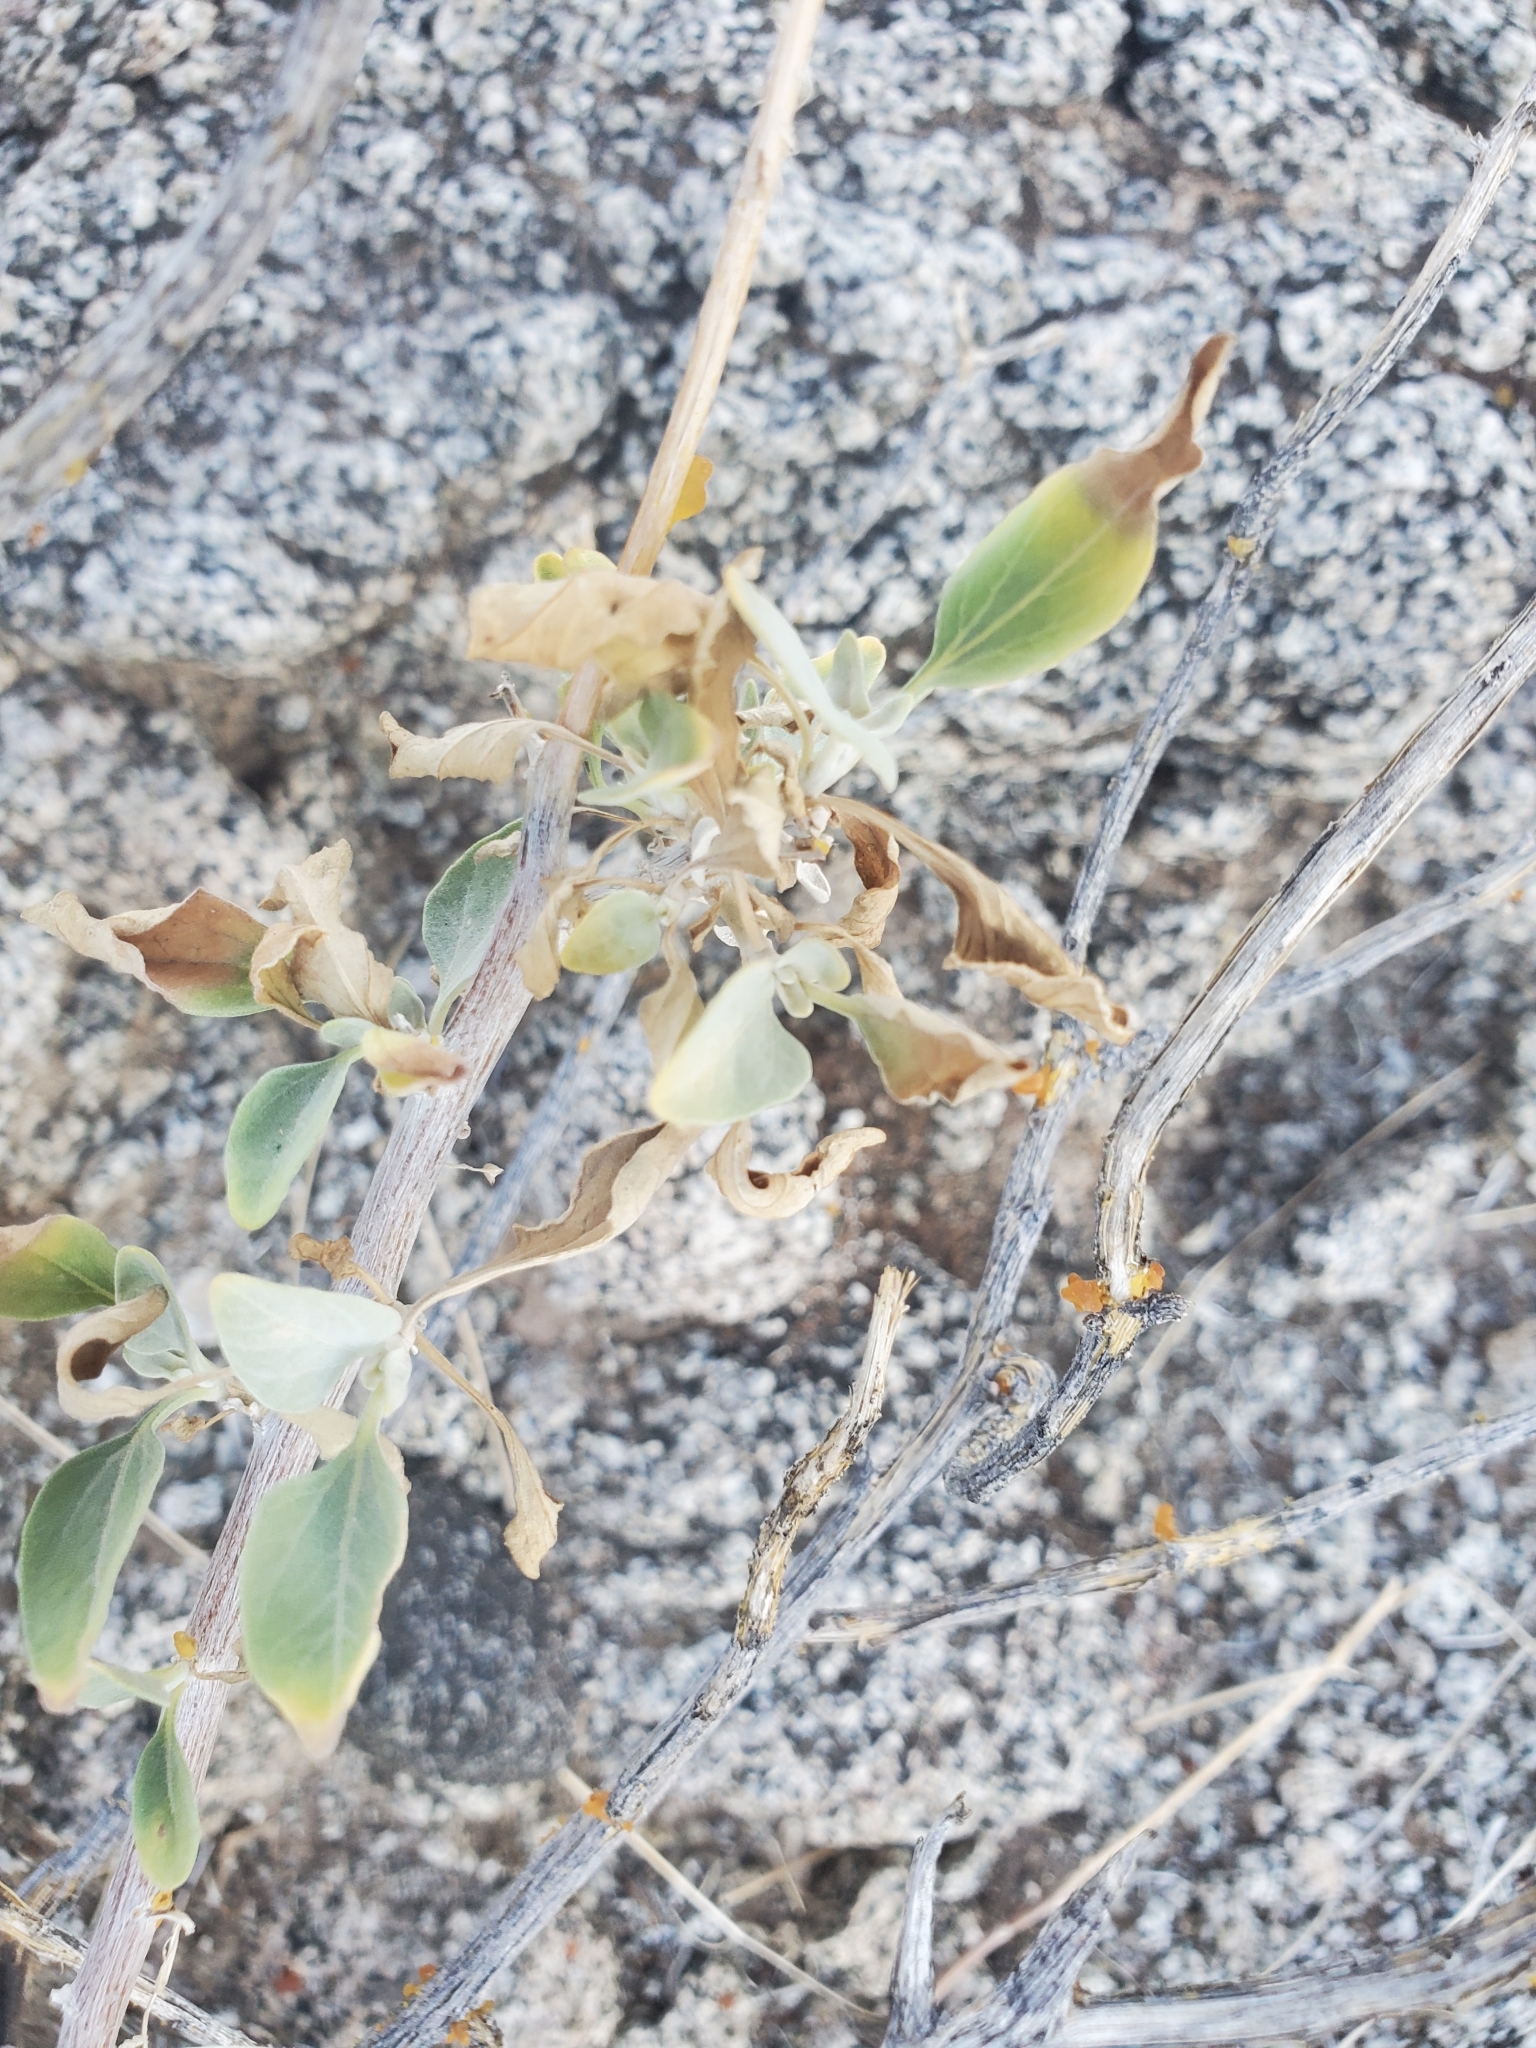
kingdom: Plantae
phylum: Tracheophyta
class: Magnoliopsida
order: Asterales
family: Asteraceae
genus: Encelia
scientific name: Encelia farinosa
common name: Brittlebush
